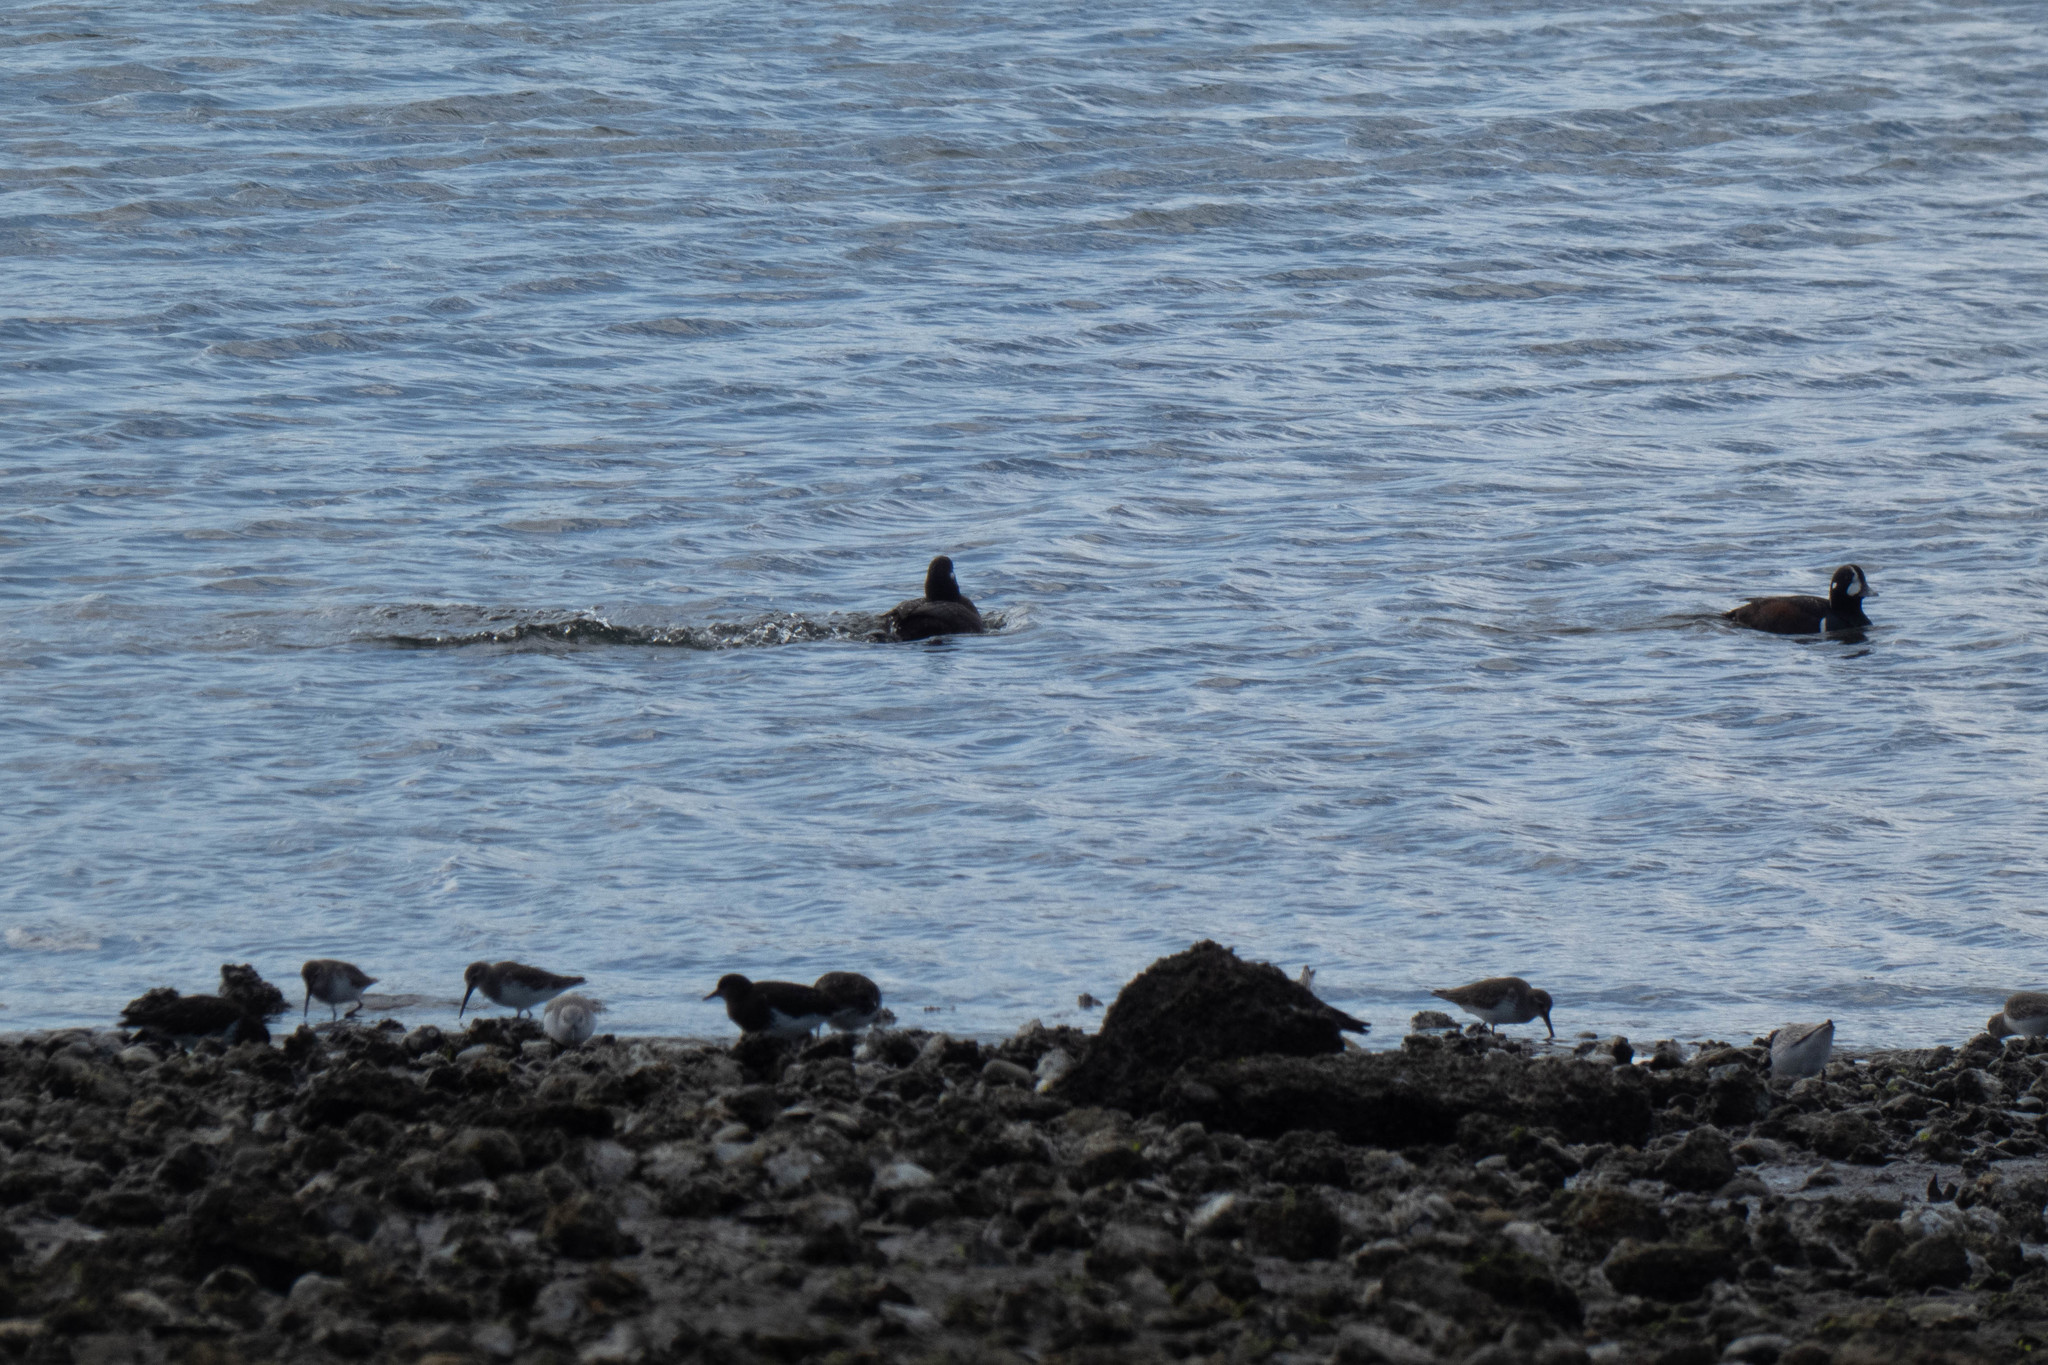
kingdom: Animalia
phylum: Chordata
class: Aves
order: Anseriformes
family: Anatidae
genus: Histrionicus
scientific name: Histrionicus histrionicus
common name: Harlequin duck
